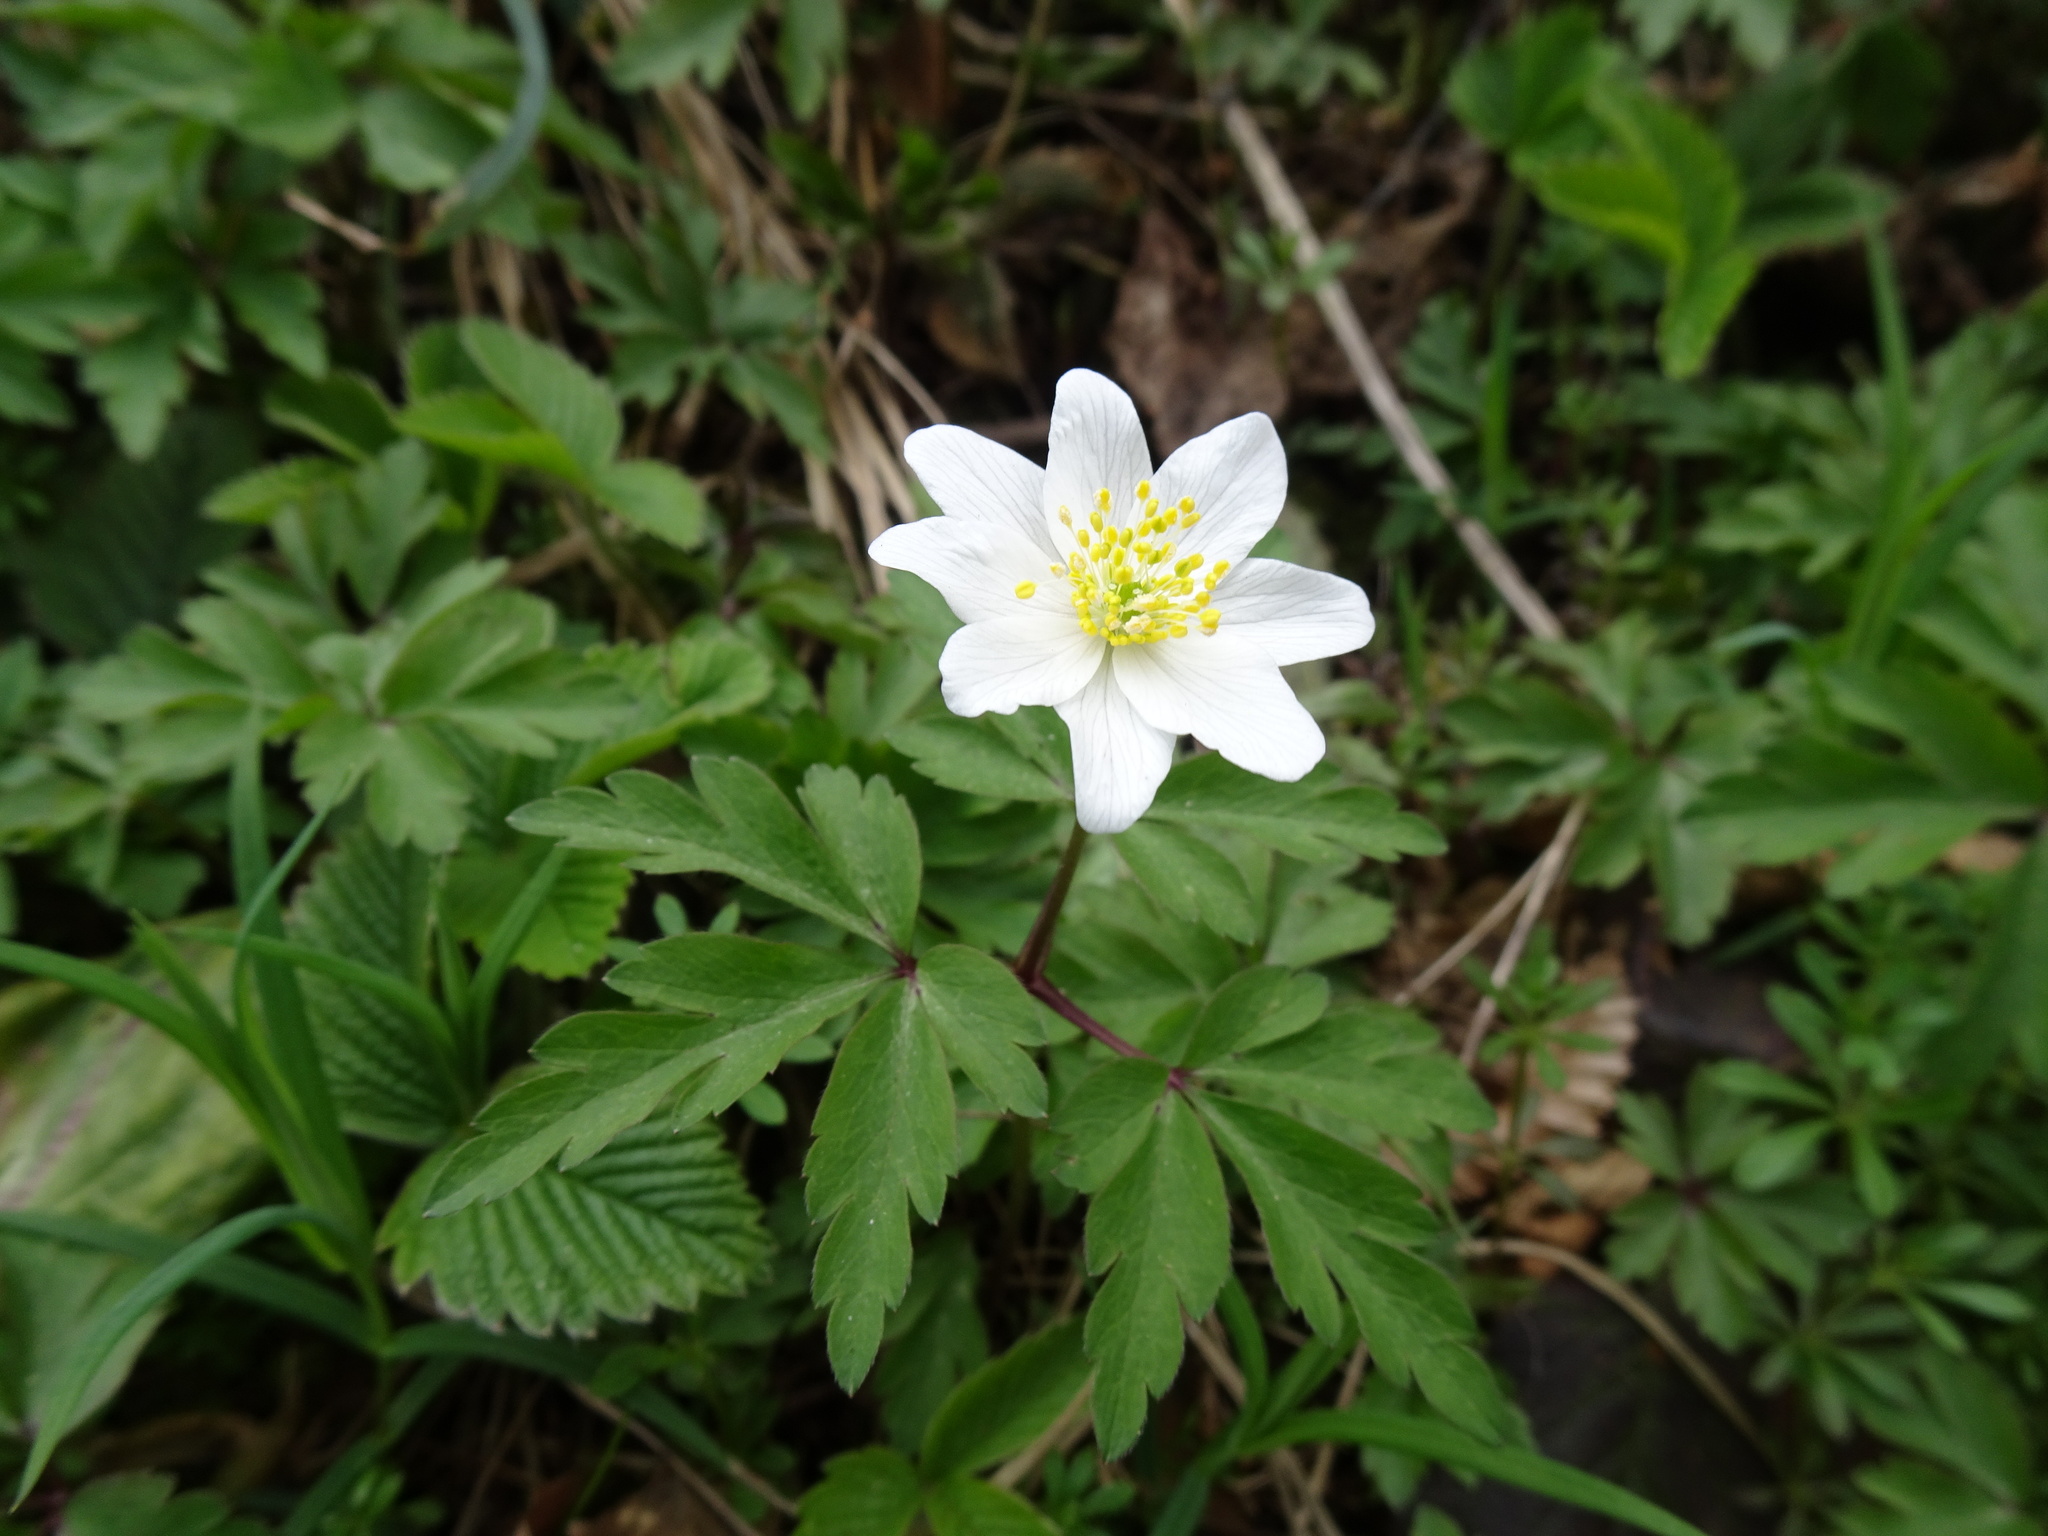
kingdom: Plantae
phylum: Tracheophyta
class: Magnoliopsida
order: Ranunculales
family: Ranunculaceae
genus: Anemone
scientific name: Anemone nemorosa
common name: Wood anemone
